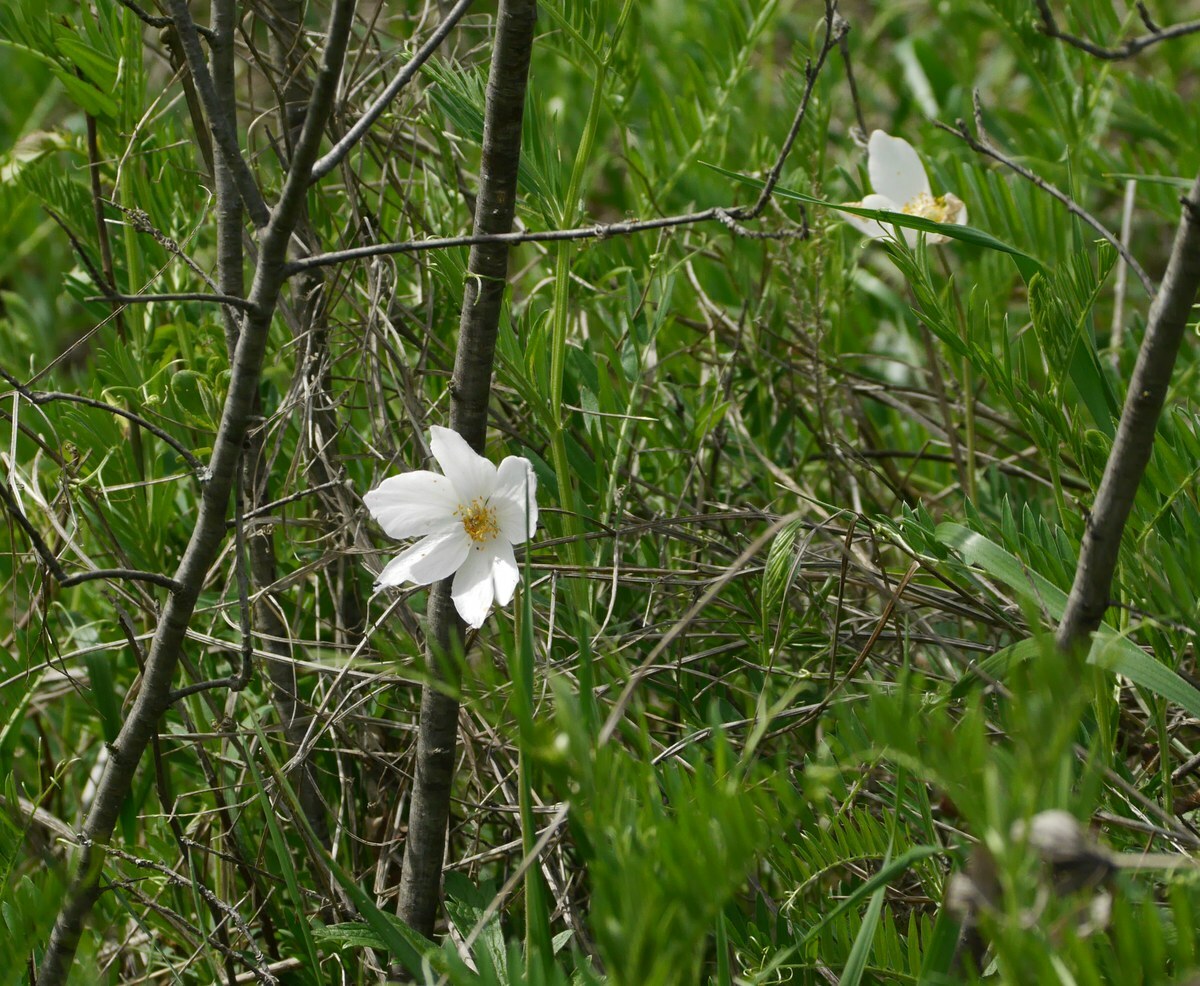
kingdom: Plantae
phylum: Tracheophyta
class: Magnoliopsida
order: Ranunculales
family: Ranunculaceae
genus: Anemone
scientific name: Anemone sylvestris
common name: Snowdrop anemone
